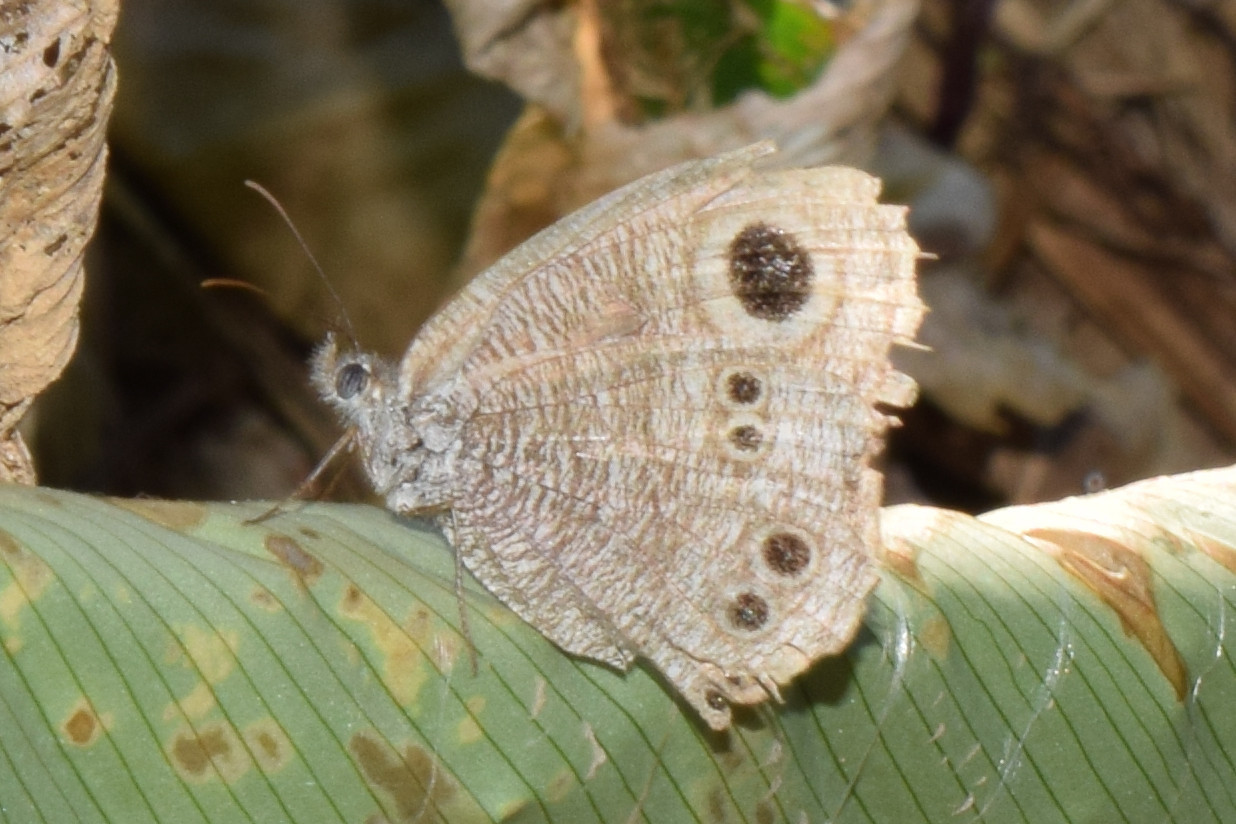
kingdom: Animalia
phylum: Arthropoda
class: Insecta
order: Lepidoptera
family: Nymphalidae
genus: Ypthima
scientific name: Ypthima baldus
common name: Common five-ring
